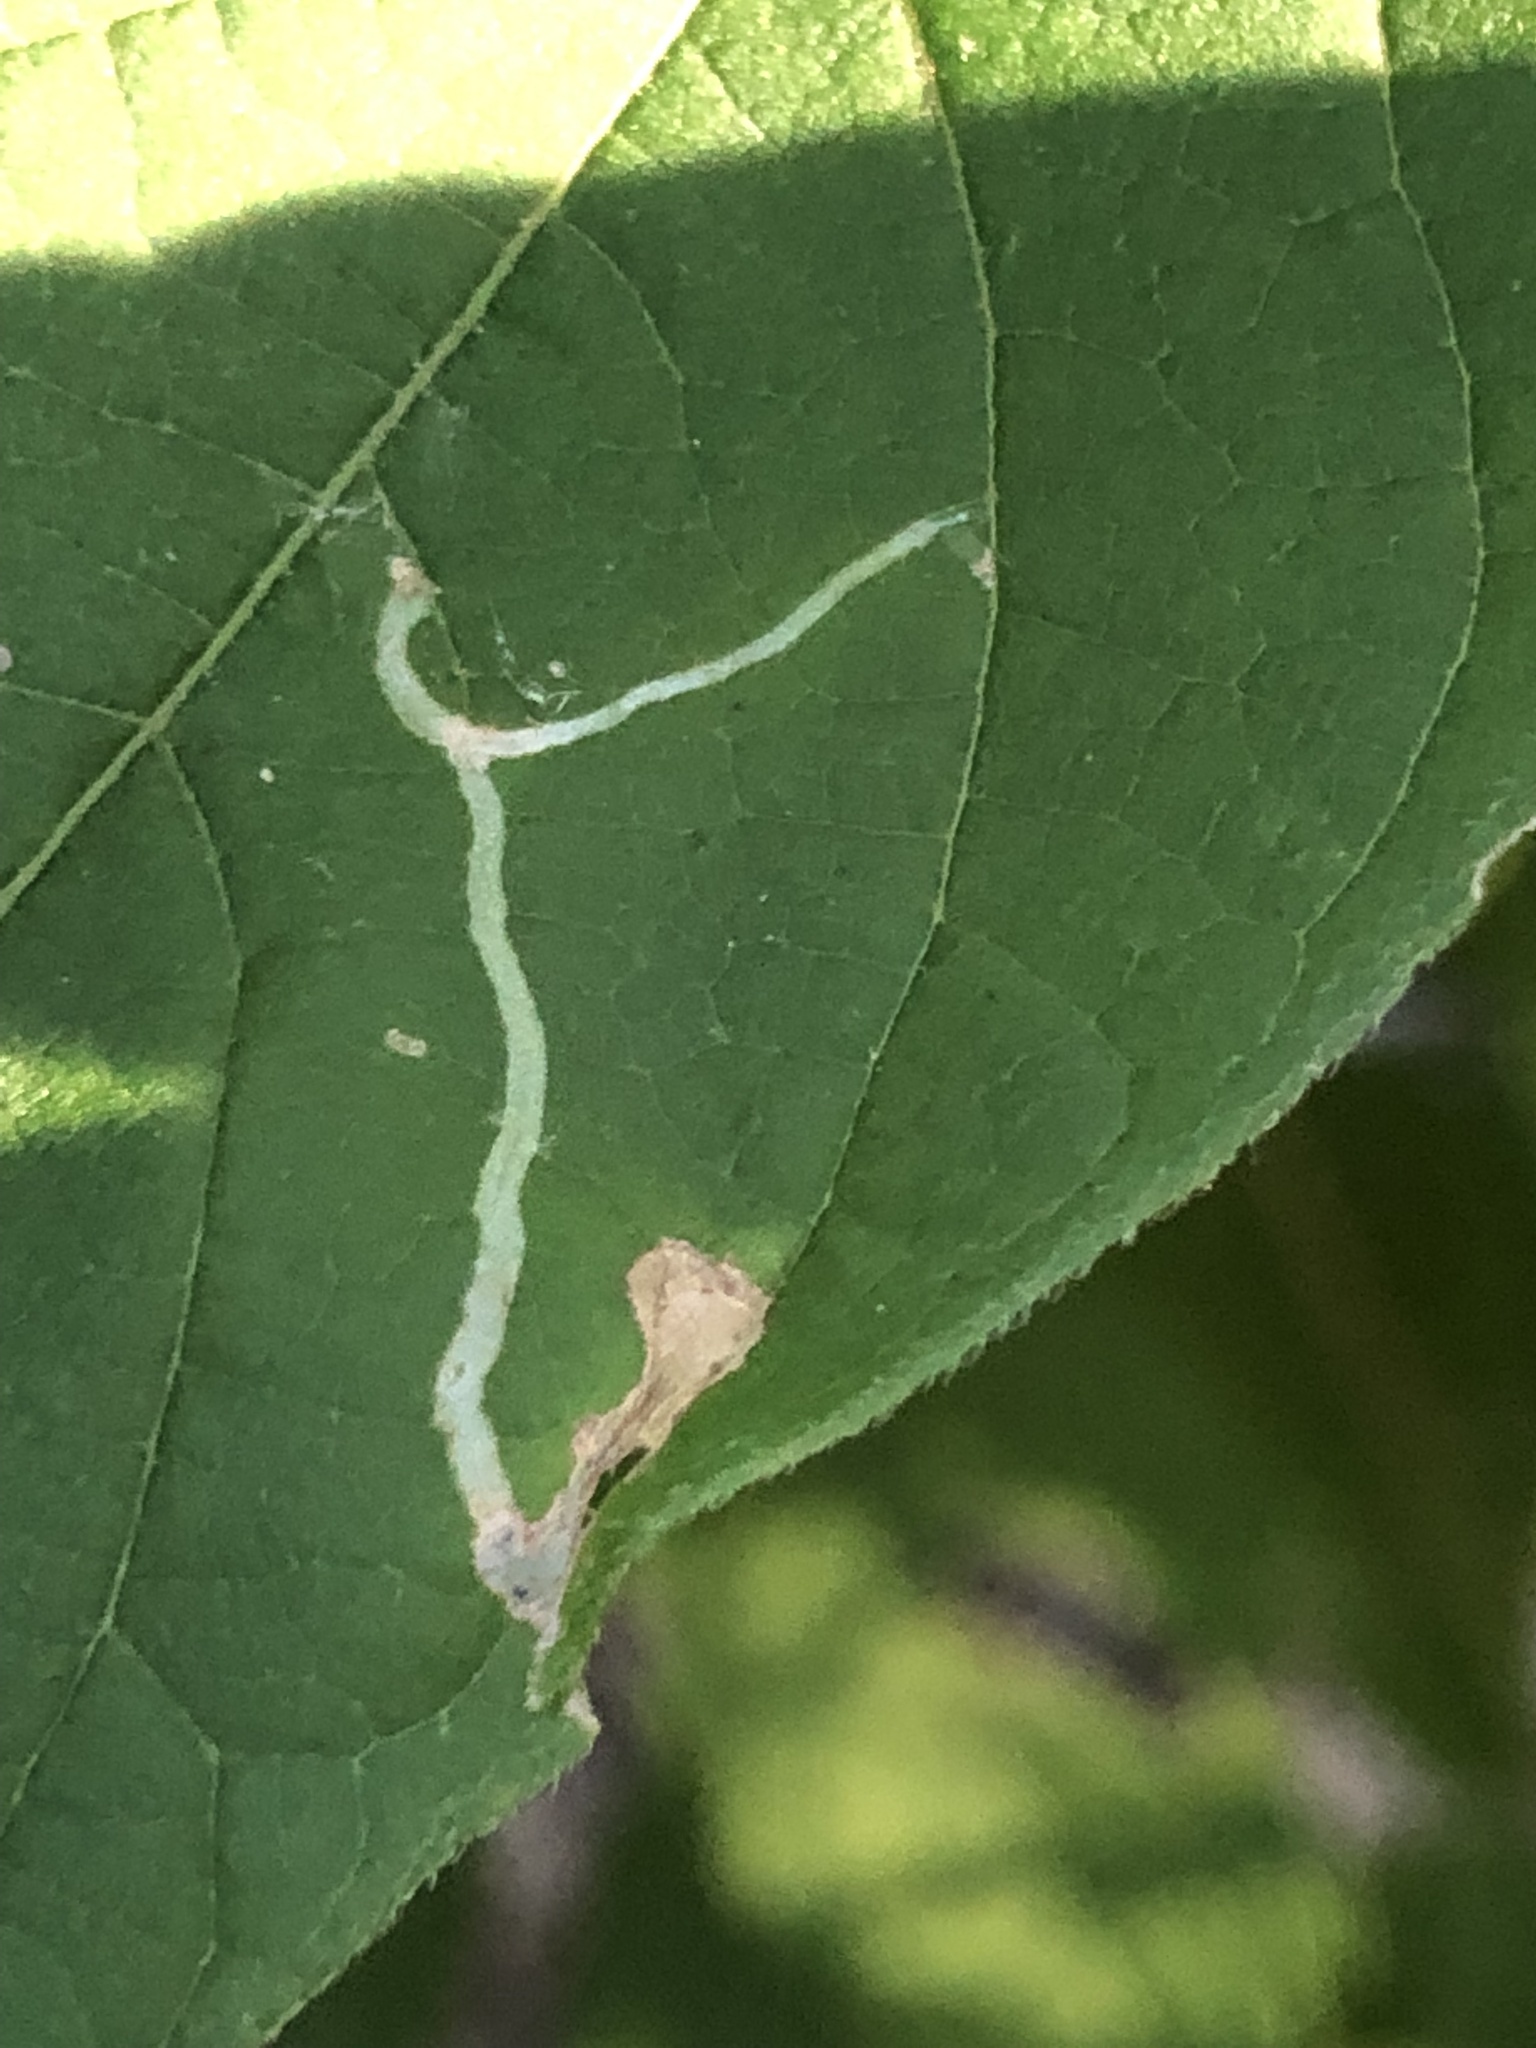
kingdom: Animalia
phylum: Arthropoda
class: Insecta
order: Lepidoptera
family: Gracillariidae
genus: Caloptilia
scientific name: Caloptilia negundella
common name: Leafminer
